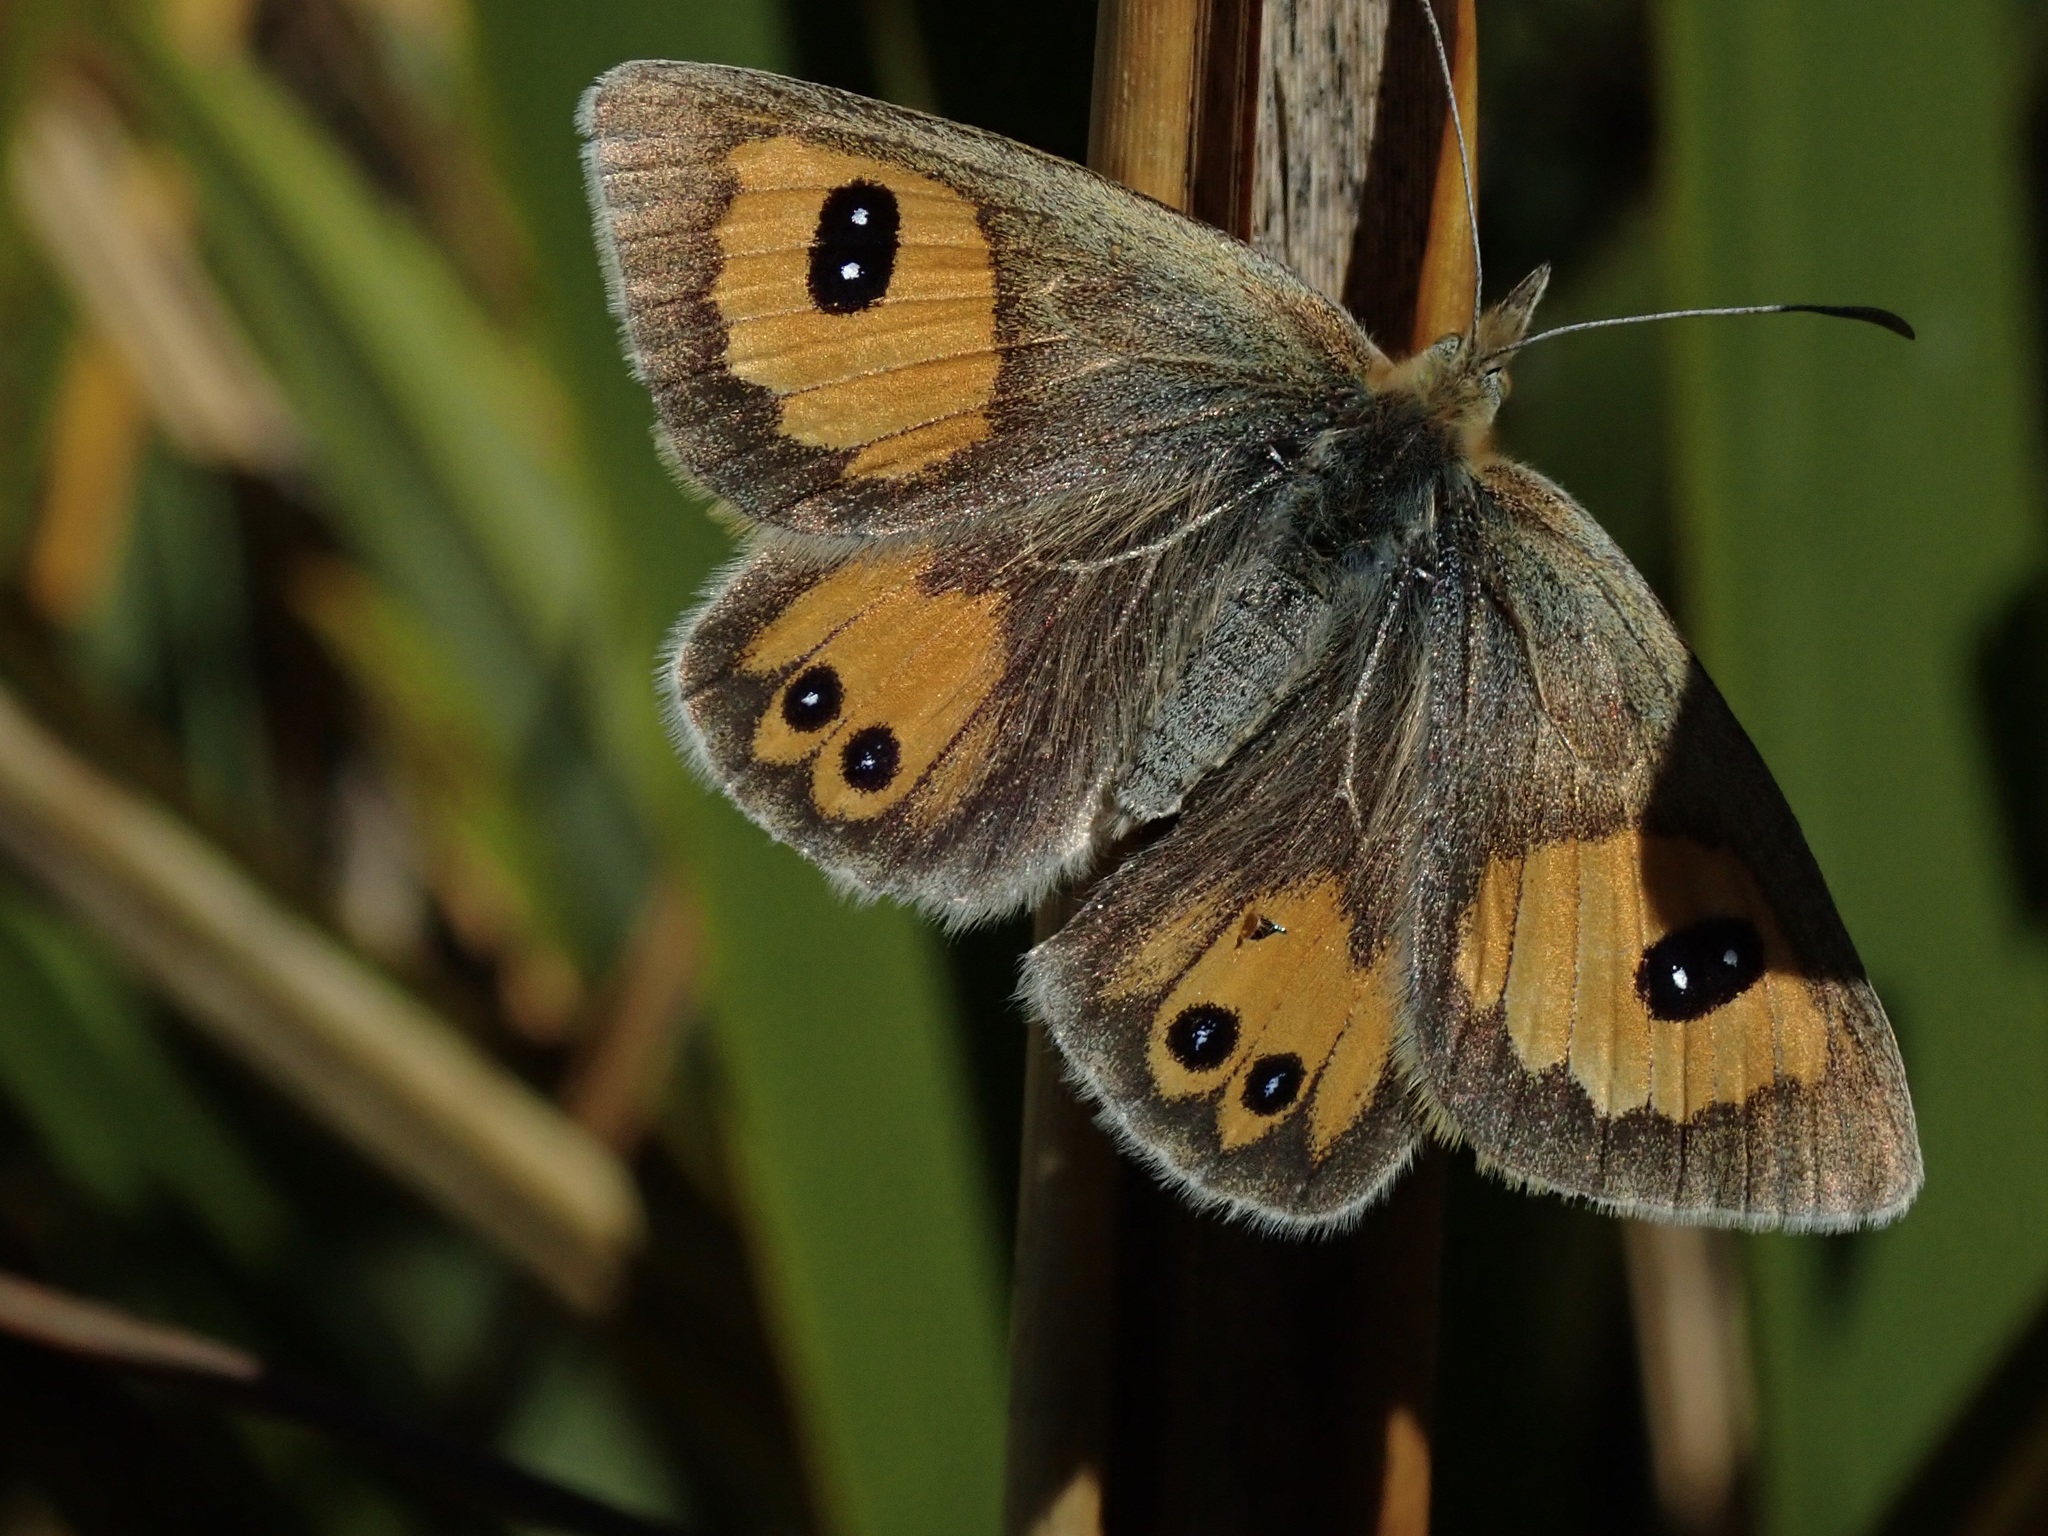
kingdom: Animalia
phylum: Arthropoda
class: Insecta
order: Lepidoptera
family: Nymphalidae
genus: Argyrophenga
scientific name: Argyrophenga antipodum
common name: Common tussock butterfly
